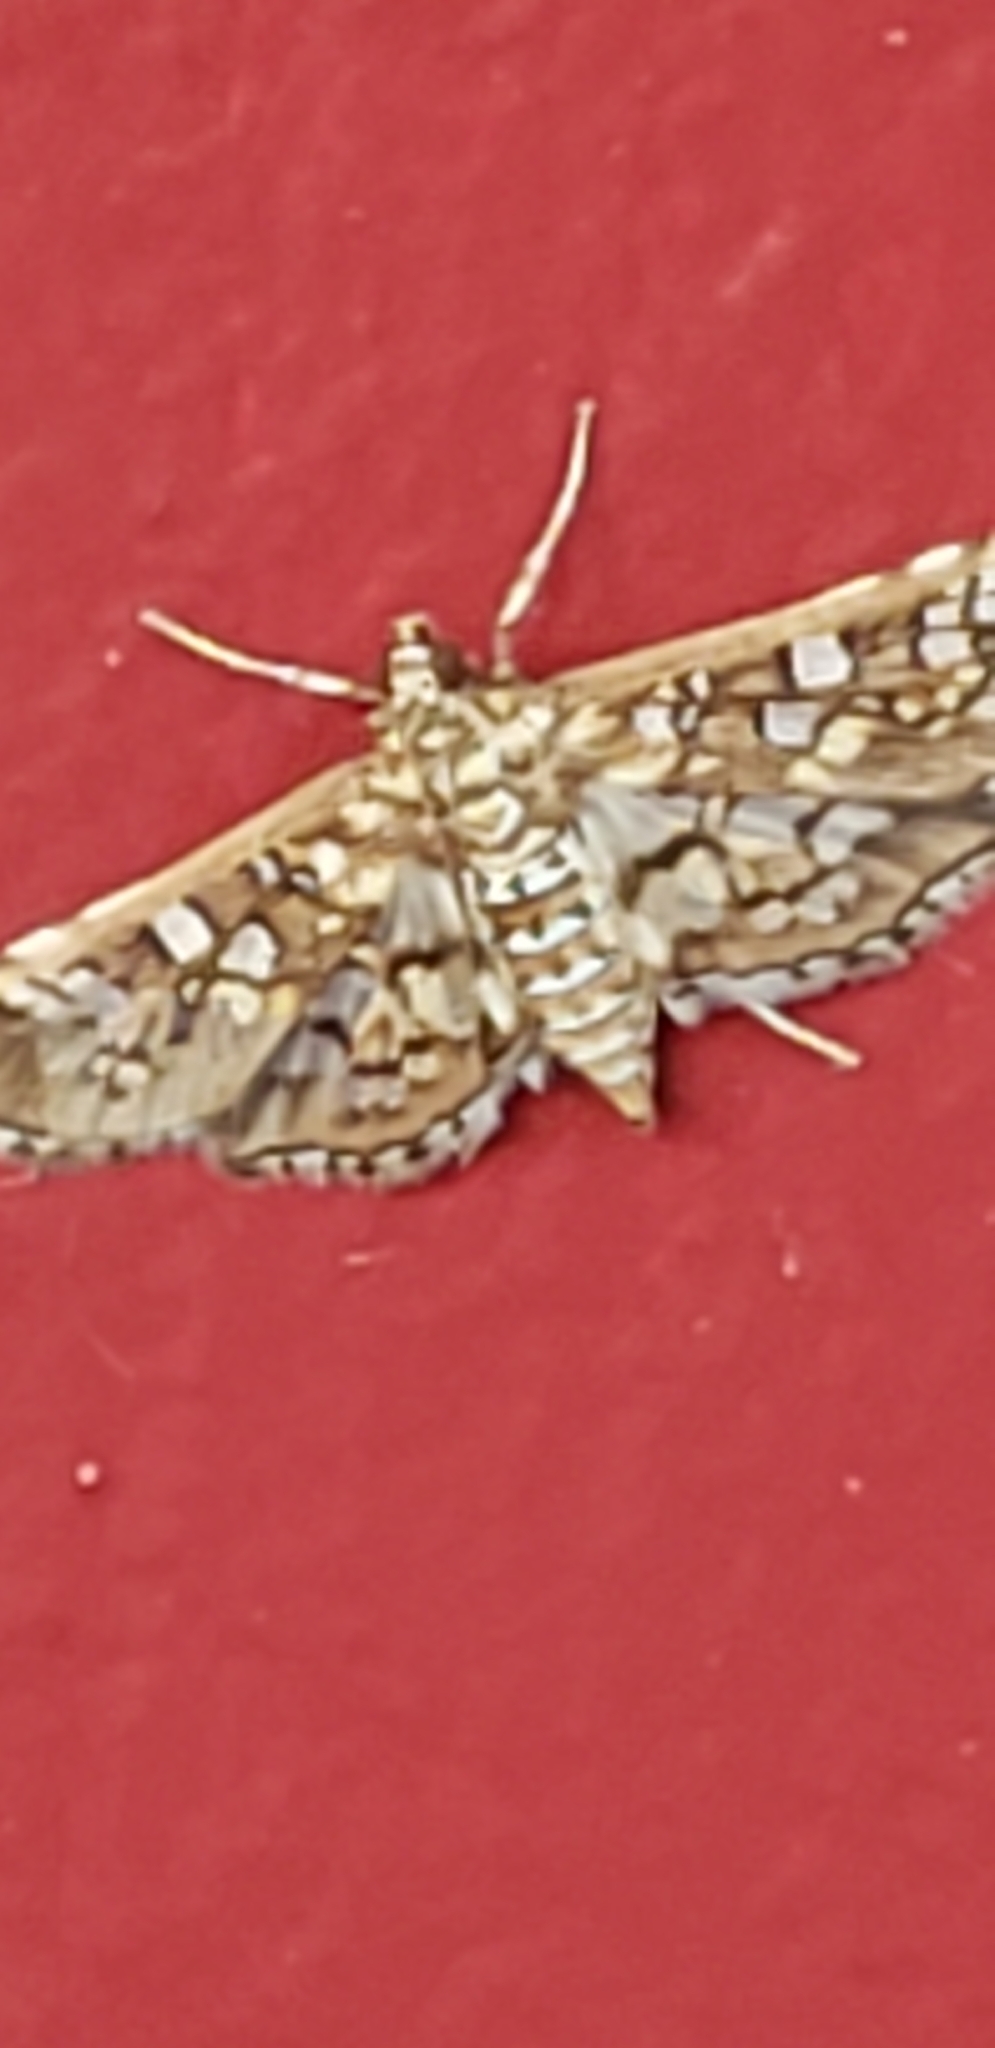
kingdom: Animalia
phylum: Arthropoda
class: Insecta
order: Lepidoptera
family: Crambidae
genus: Samea
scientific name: Samea multiplicalis
